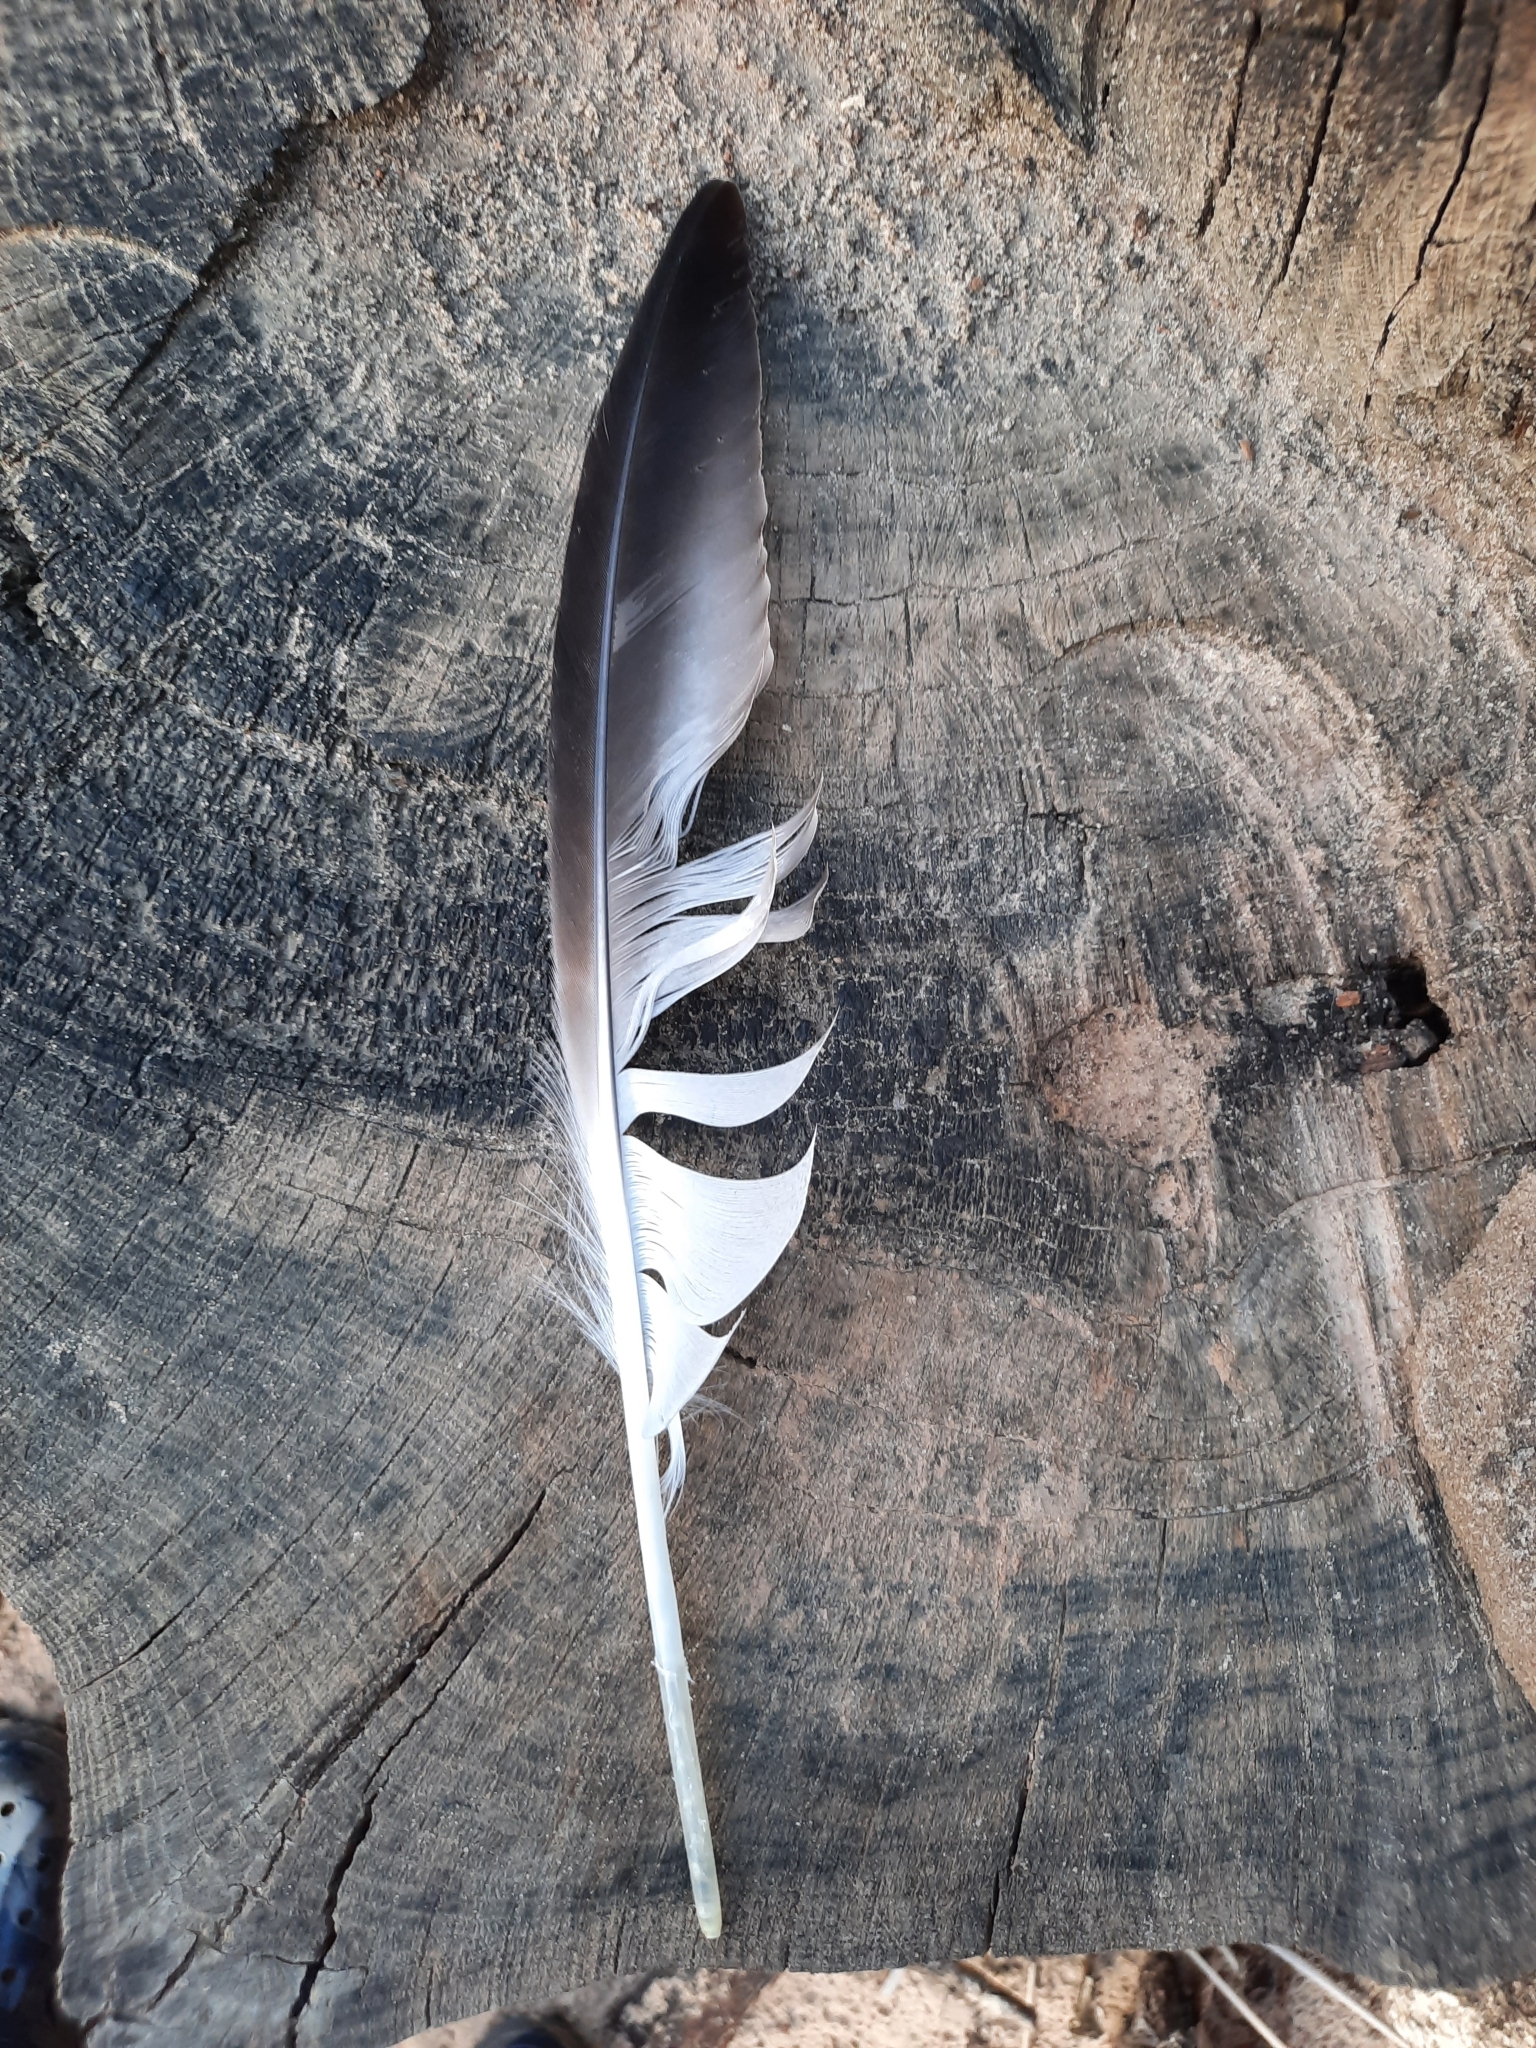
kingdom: Animalia
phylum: Chordata
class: Aves
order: Charadriiformes
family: Laridae
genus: Ichthyaetus
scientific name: Ichthyaetus ichthyaetus
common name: Pallas's gull
